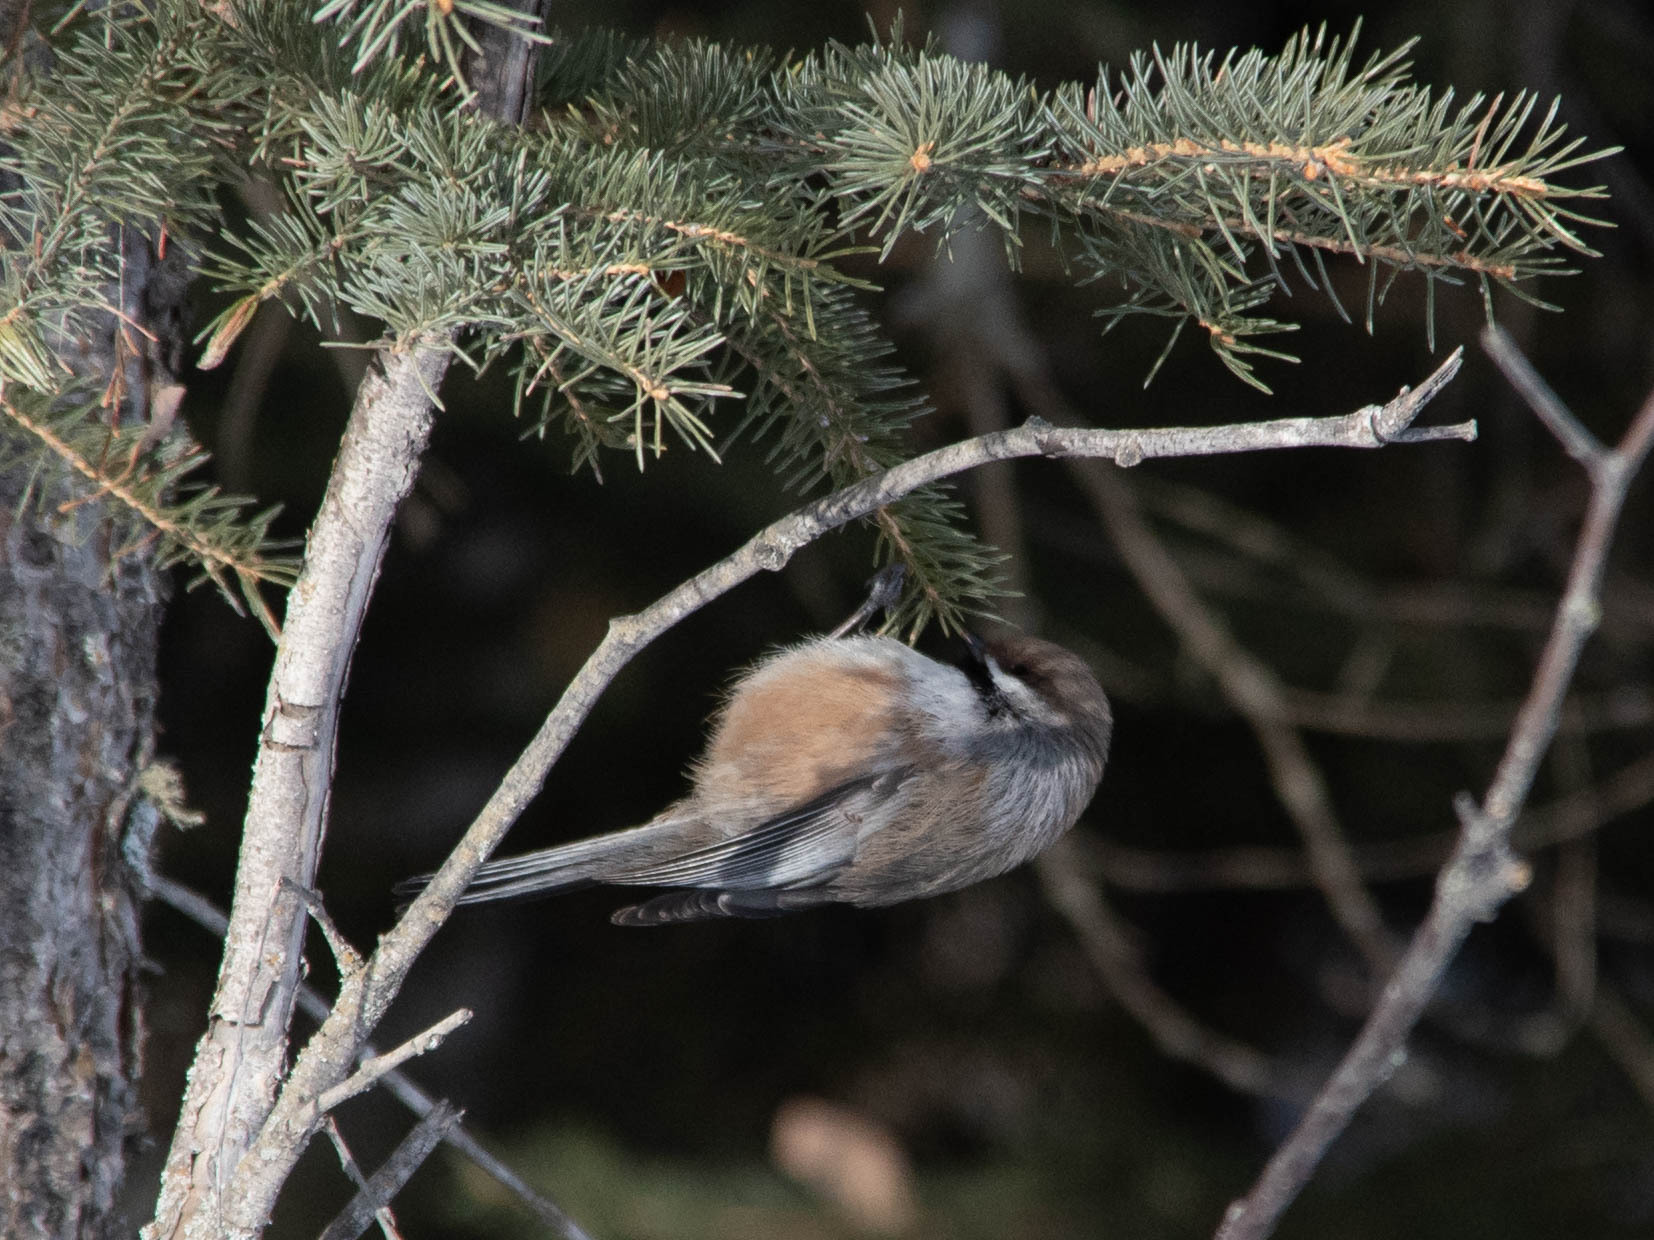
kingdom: Animalia
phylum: Chordata
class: Aves
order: Passeriformes
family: Paridae
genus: Poecile
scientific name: Poecile hudsonicus
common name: Boreal chickadee
